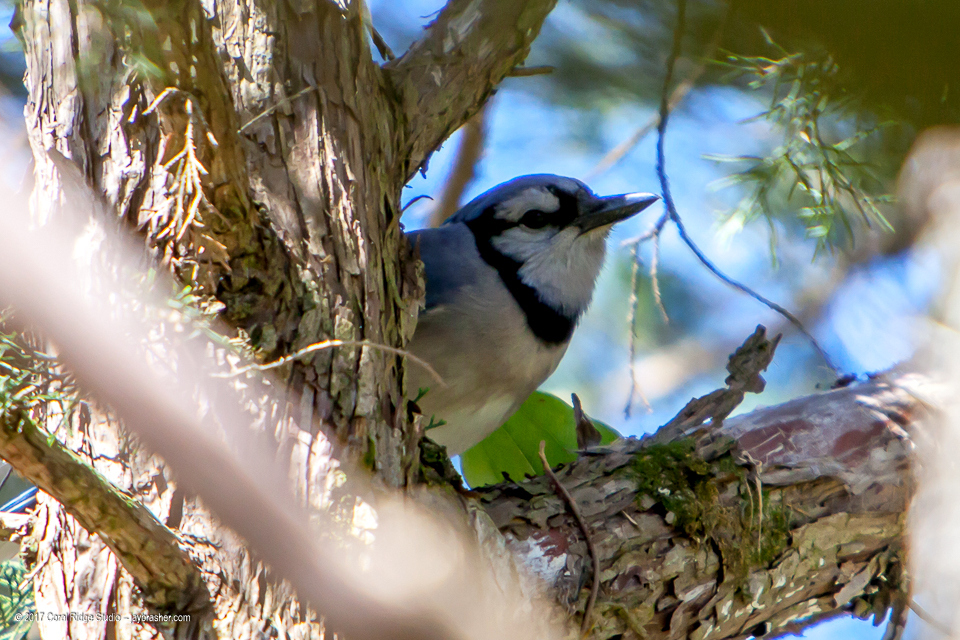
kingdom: Animalia
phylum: Chordata
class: Aves
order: Passeriformes
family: Corvidae
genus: Cyanocitta
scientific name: Cyanocitta cristata
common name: Blue jay
